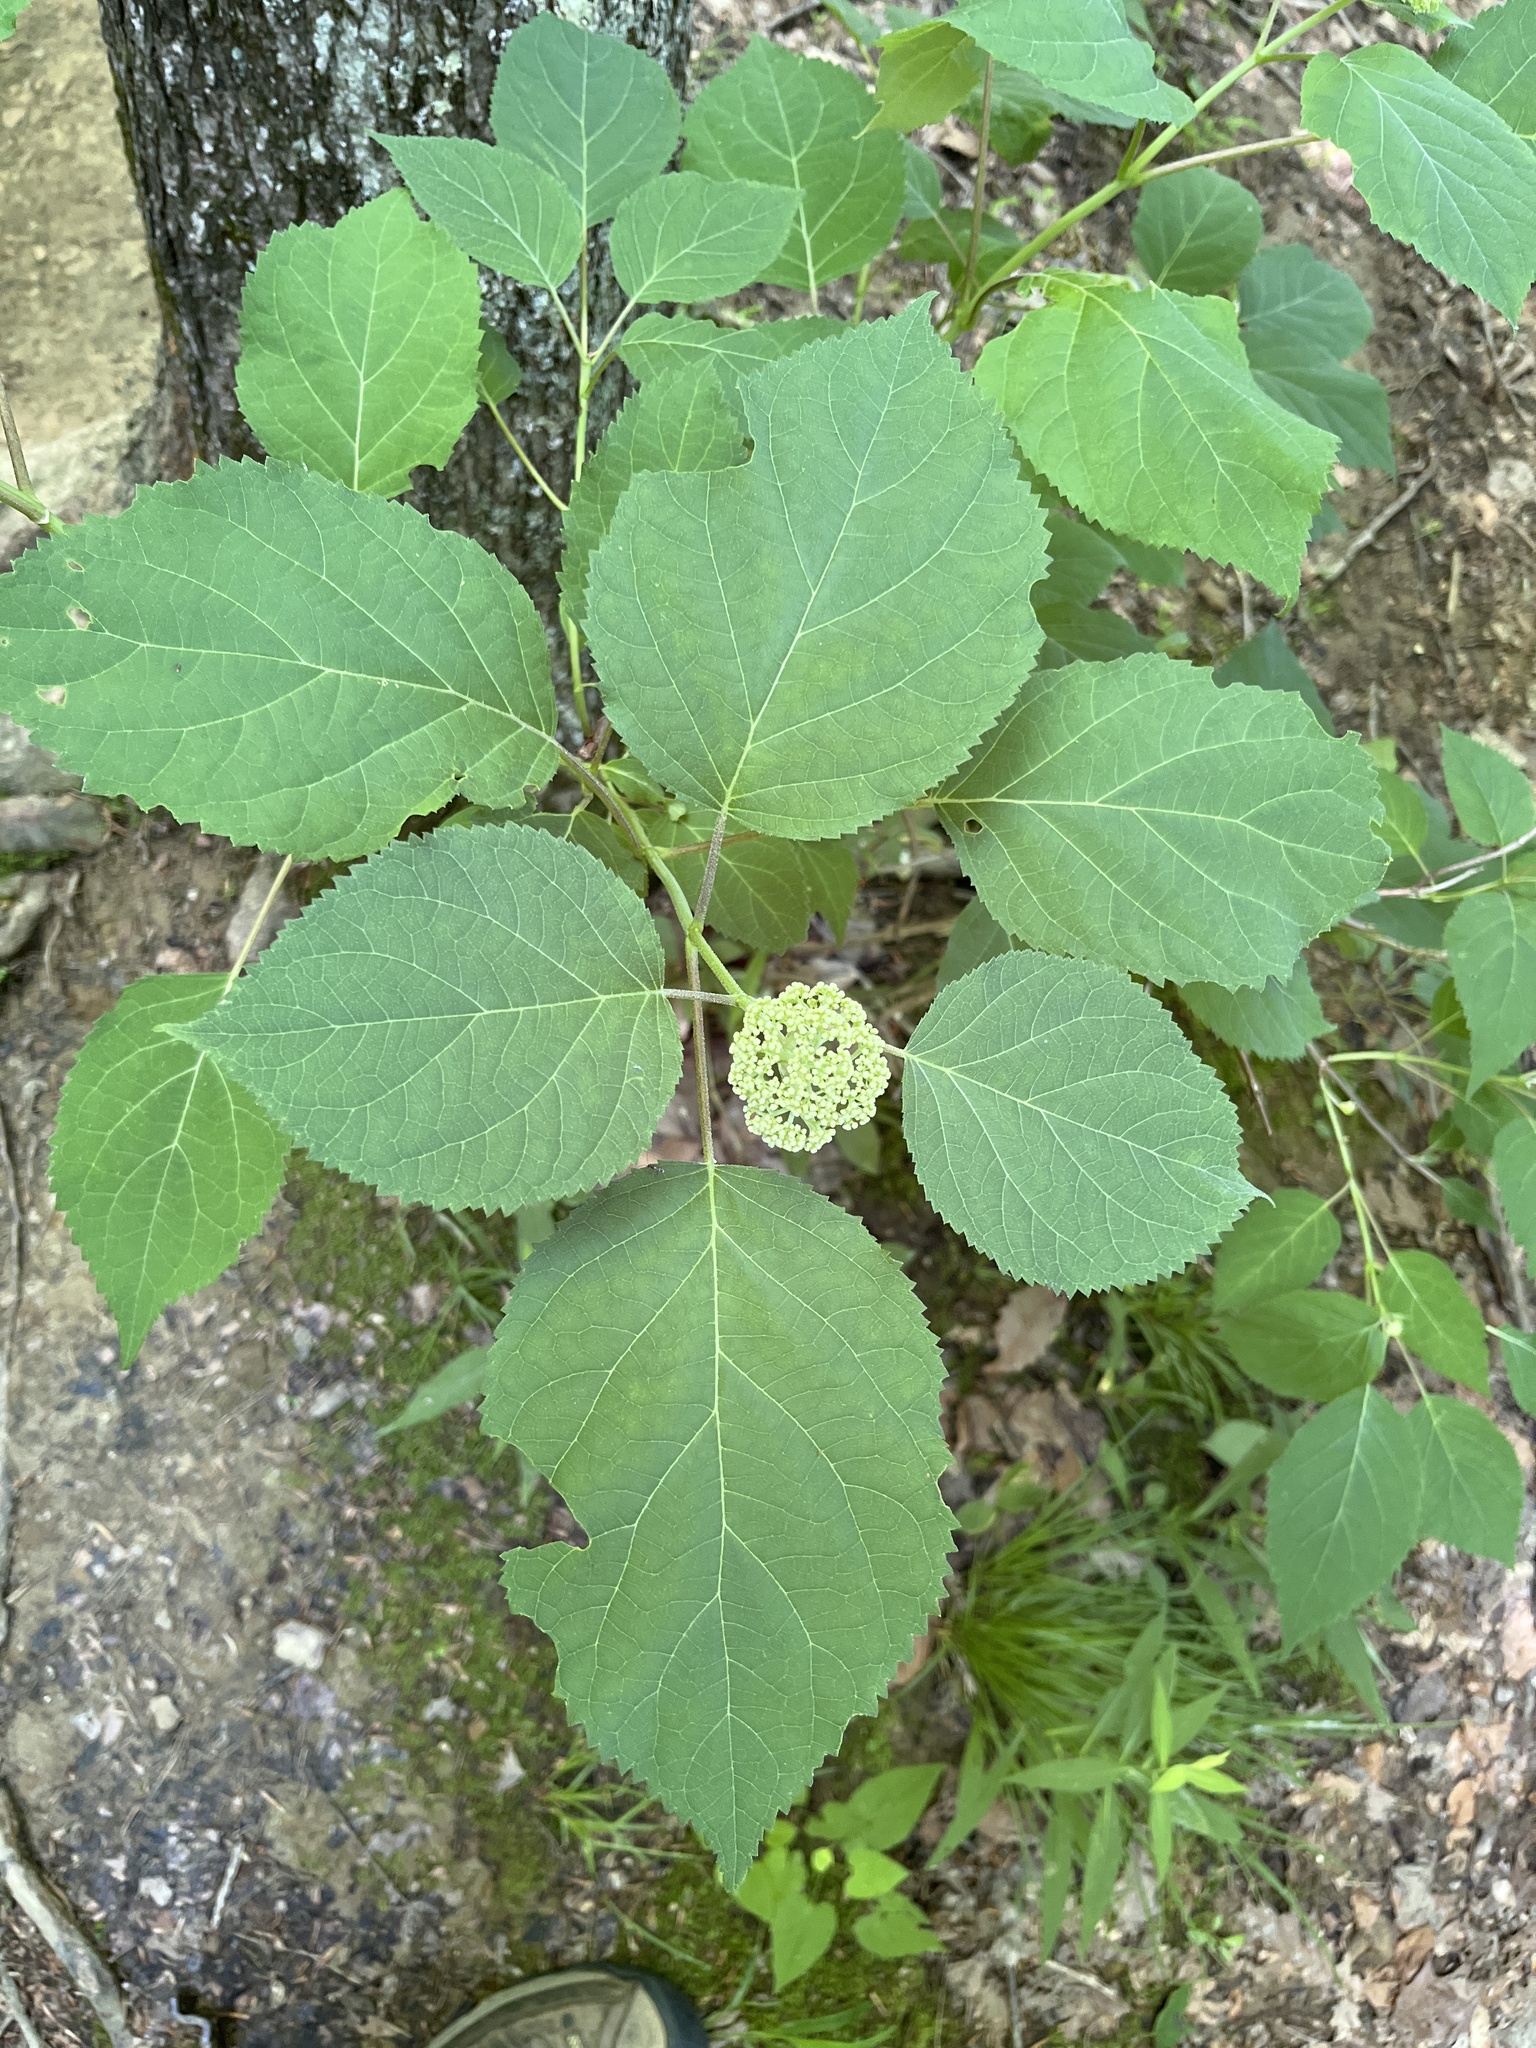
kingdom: Plantae
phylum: Tracheophyta
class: Magnoliopsida
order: Cornales
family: Hydrangeaceae
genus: Hydrangea
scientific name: Hydrangea arborescens
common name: Sevenbark
